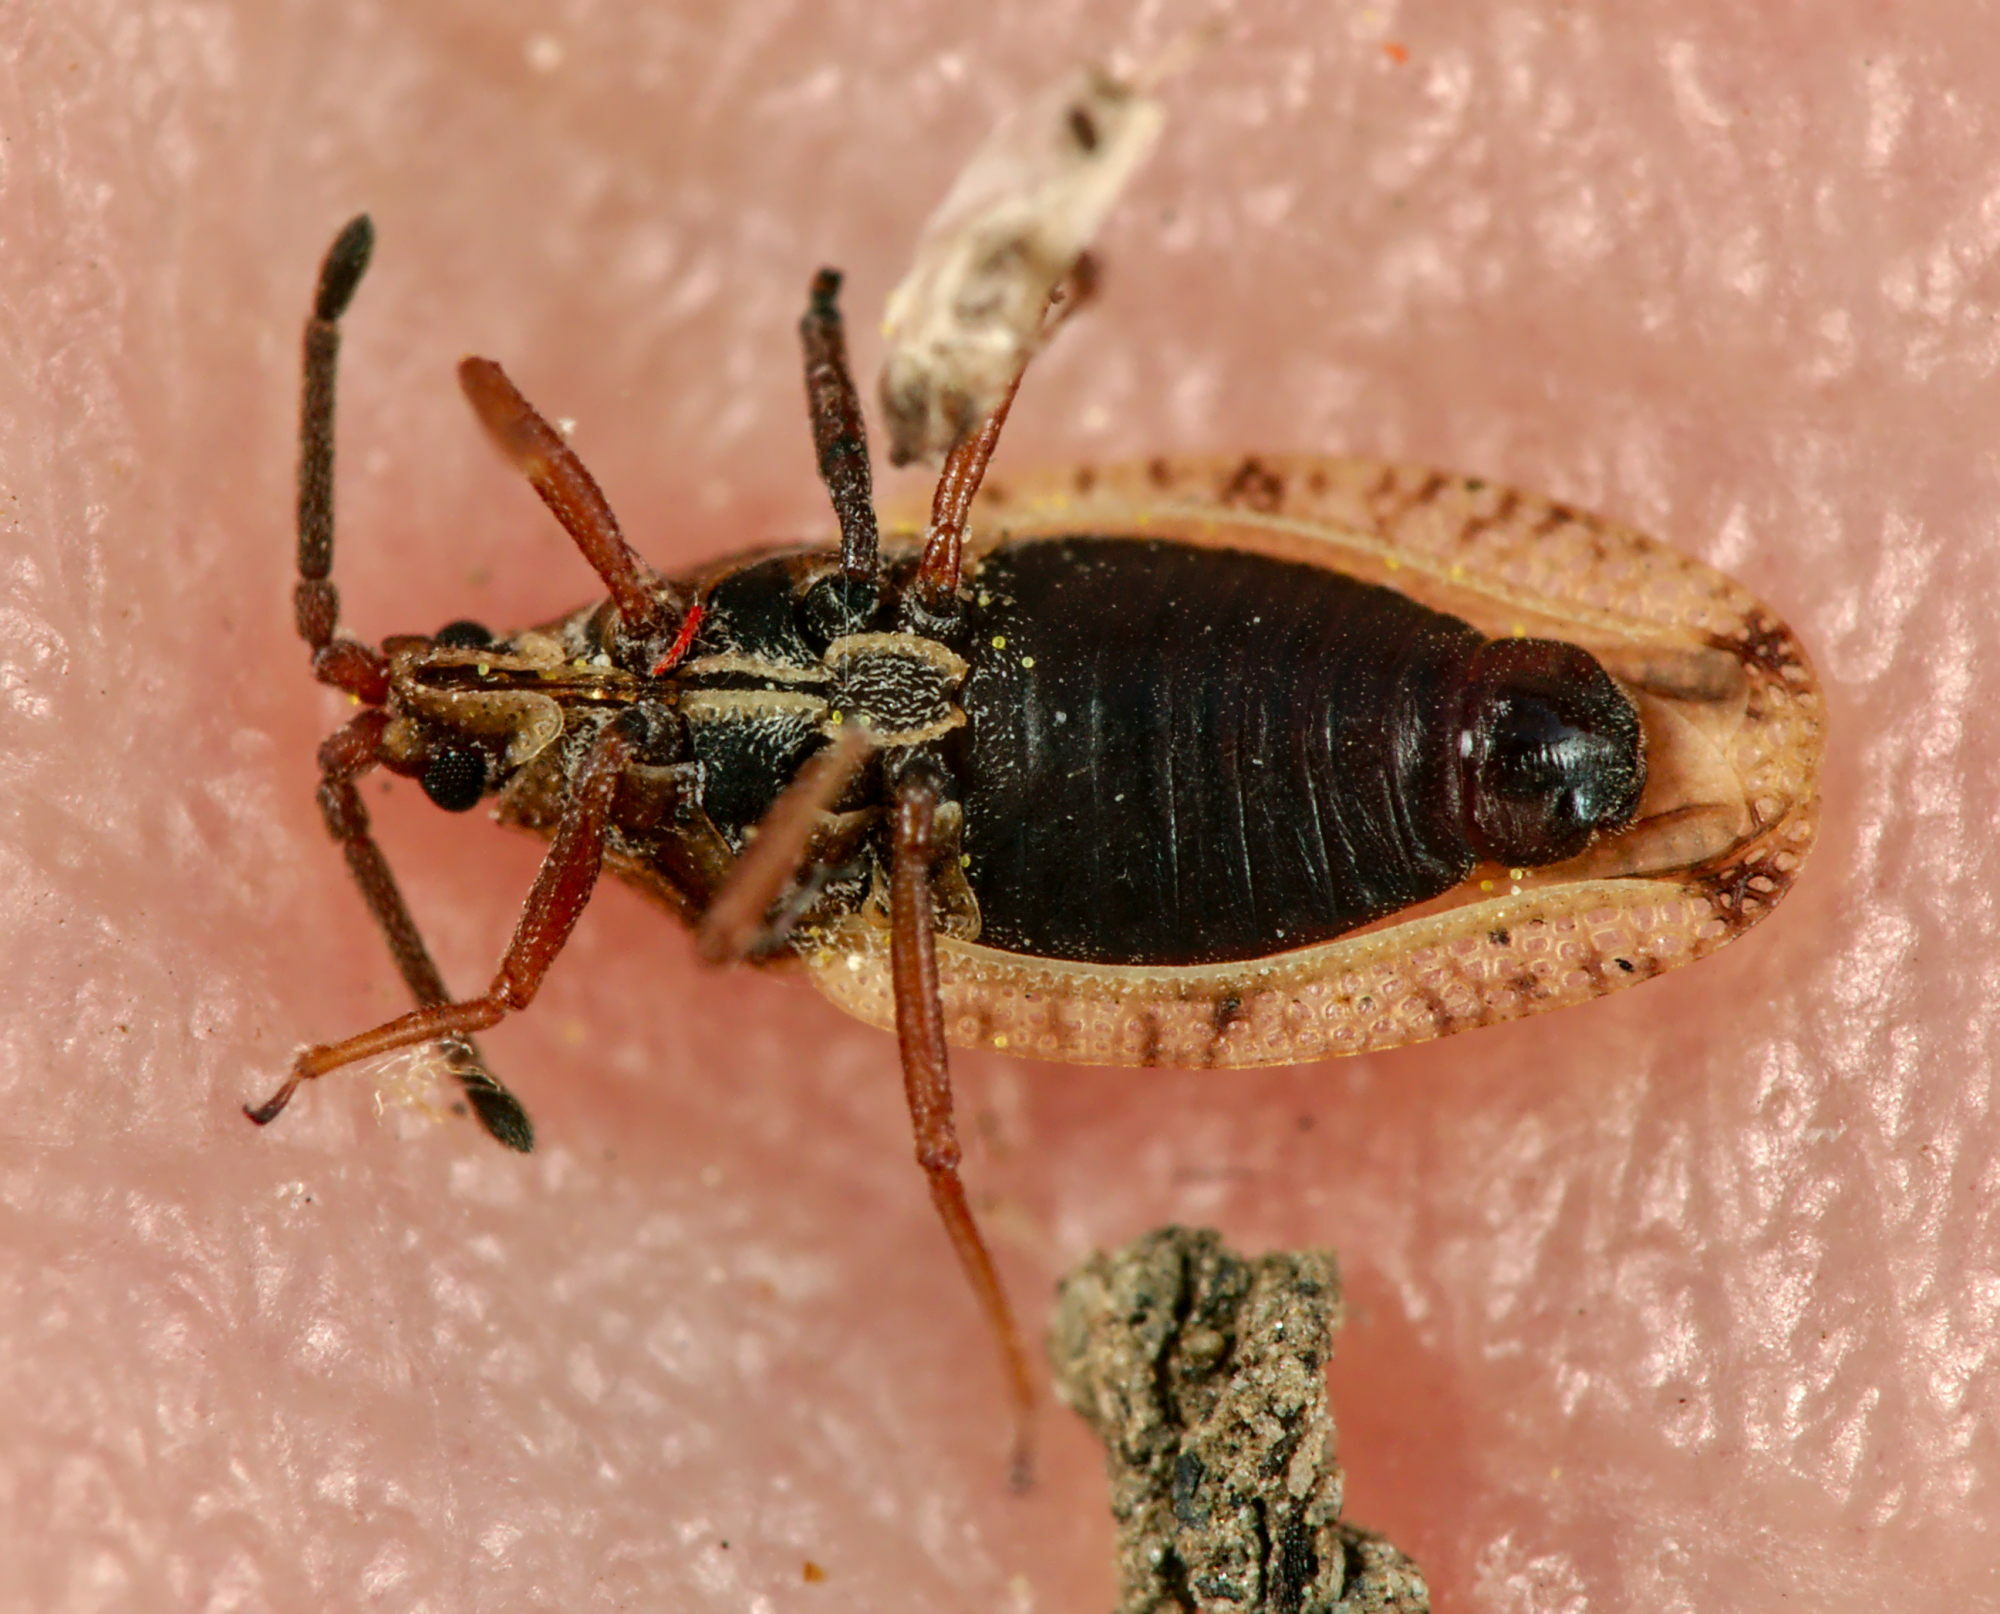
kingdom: Animalia
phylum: Arthropoda
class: Insecta
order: Hemiptera
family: Tingidae
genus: Catoplatus
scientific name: Catoplatus fabricii
